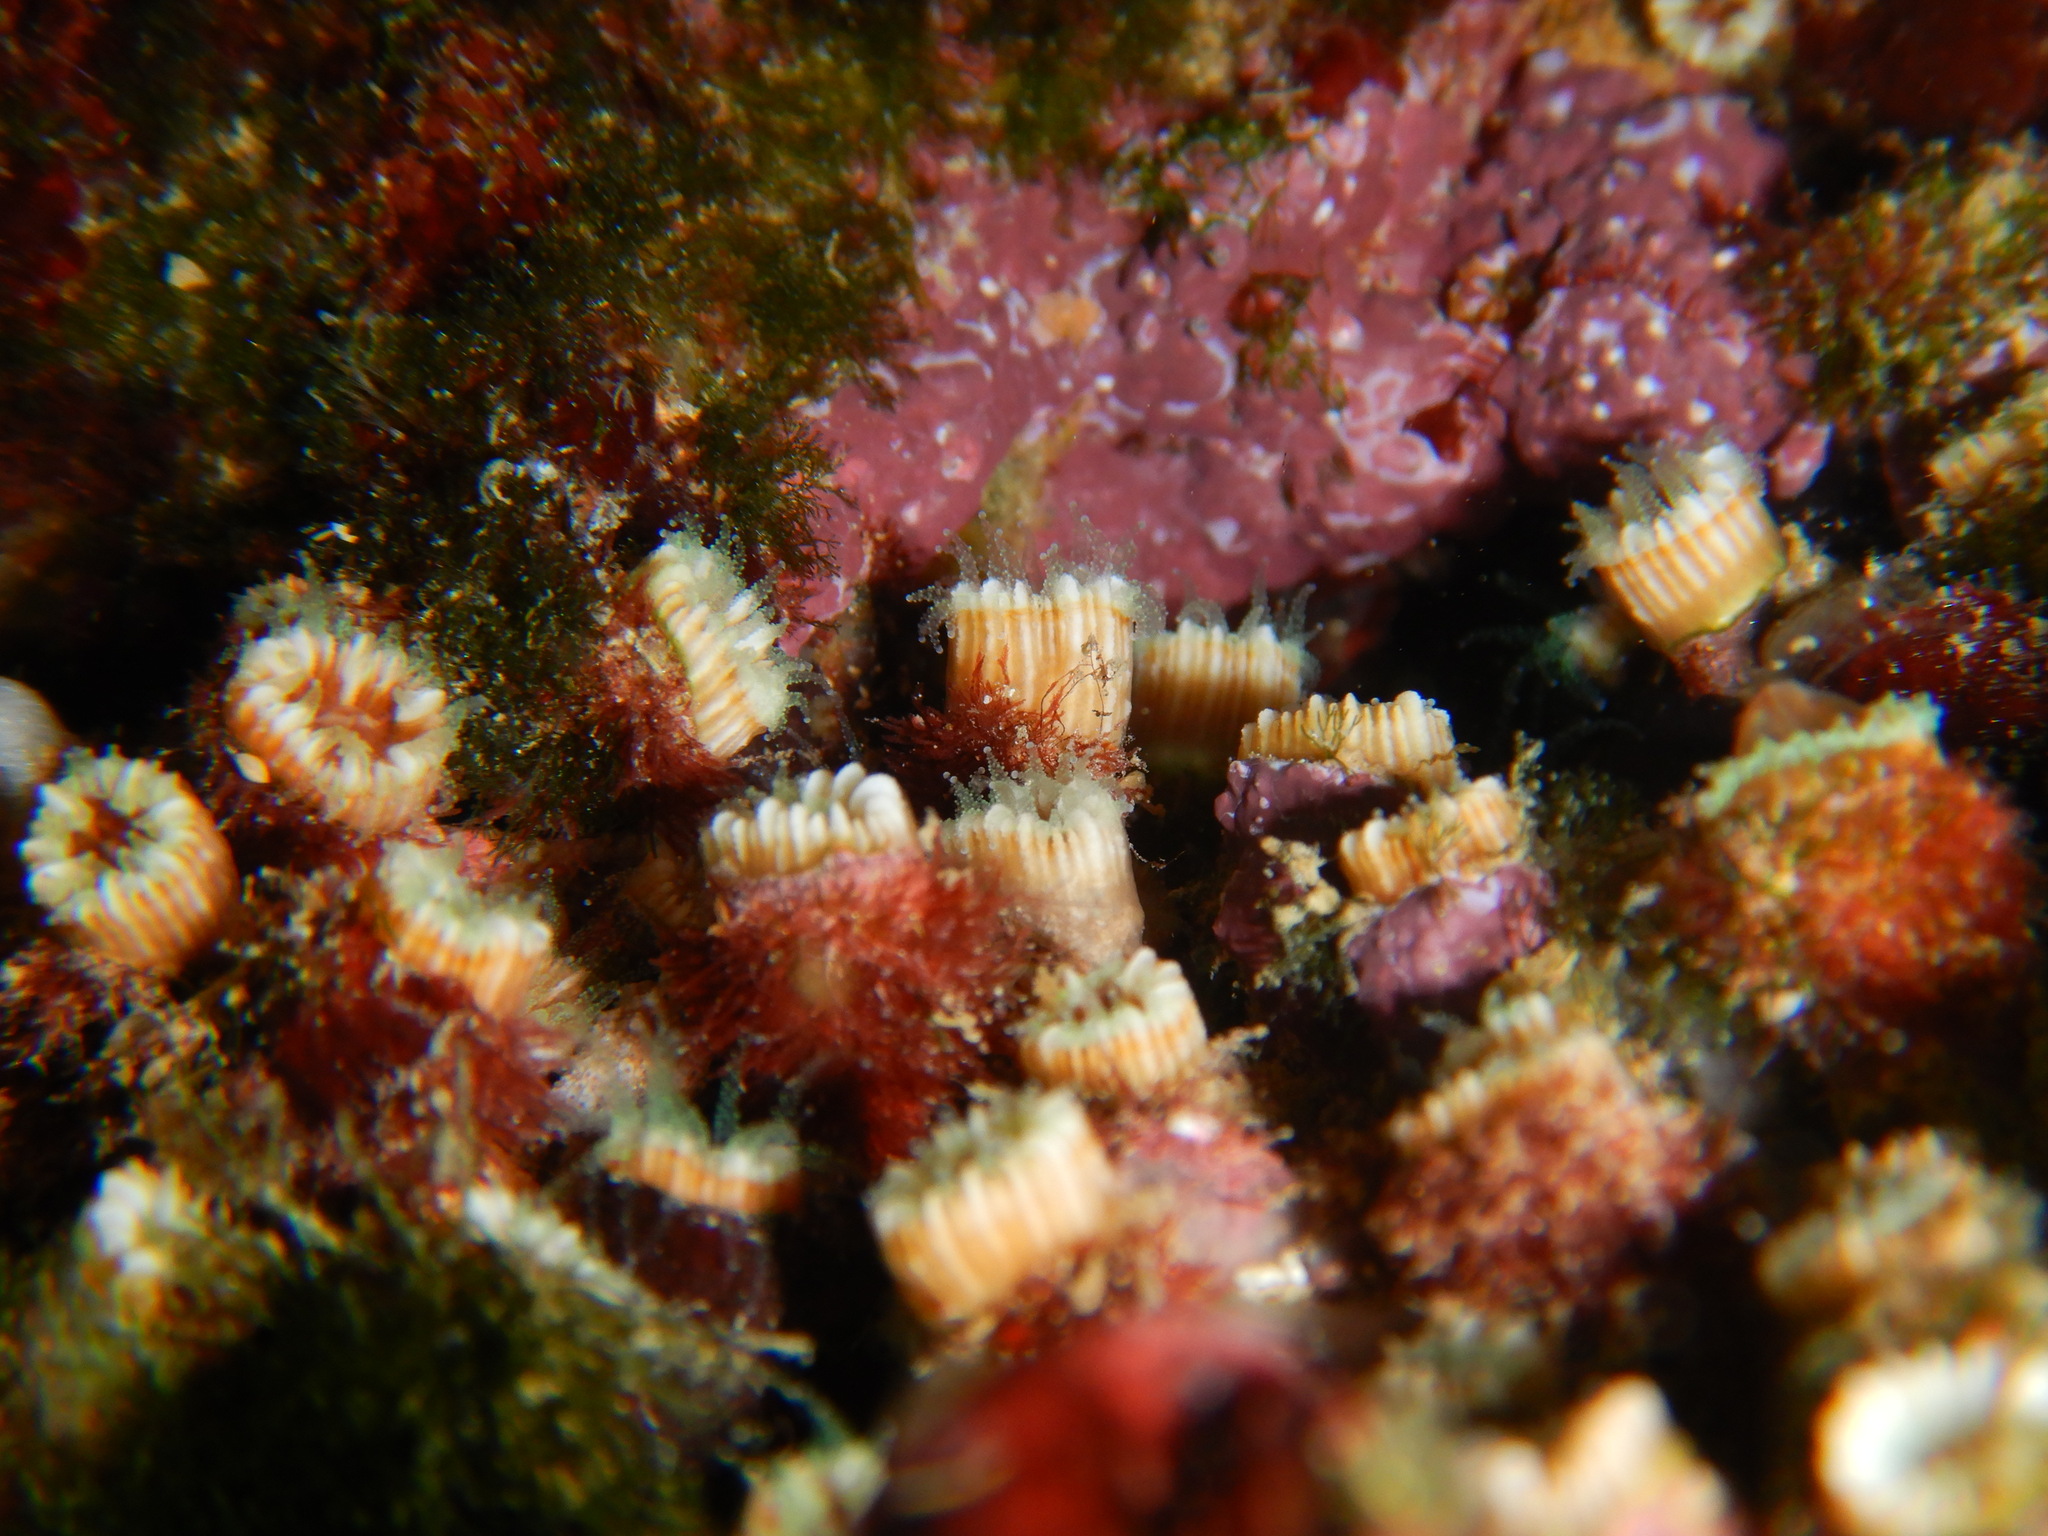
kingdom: Animalia
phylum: Cnidaria
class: Anthozoa
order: Scleractinia
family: Caryophylliidae
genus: Polycyathus
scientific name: Polycyathus muellerae
